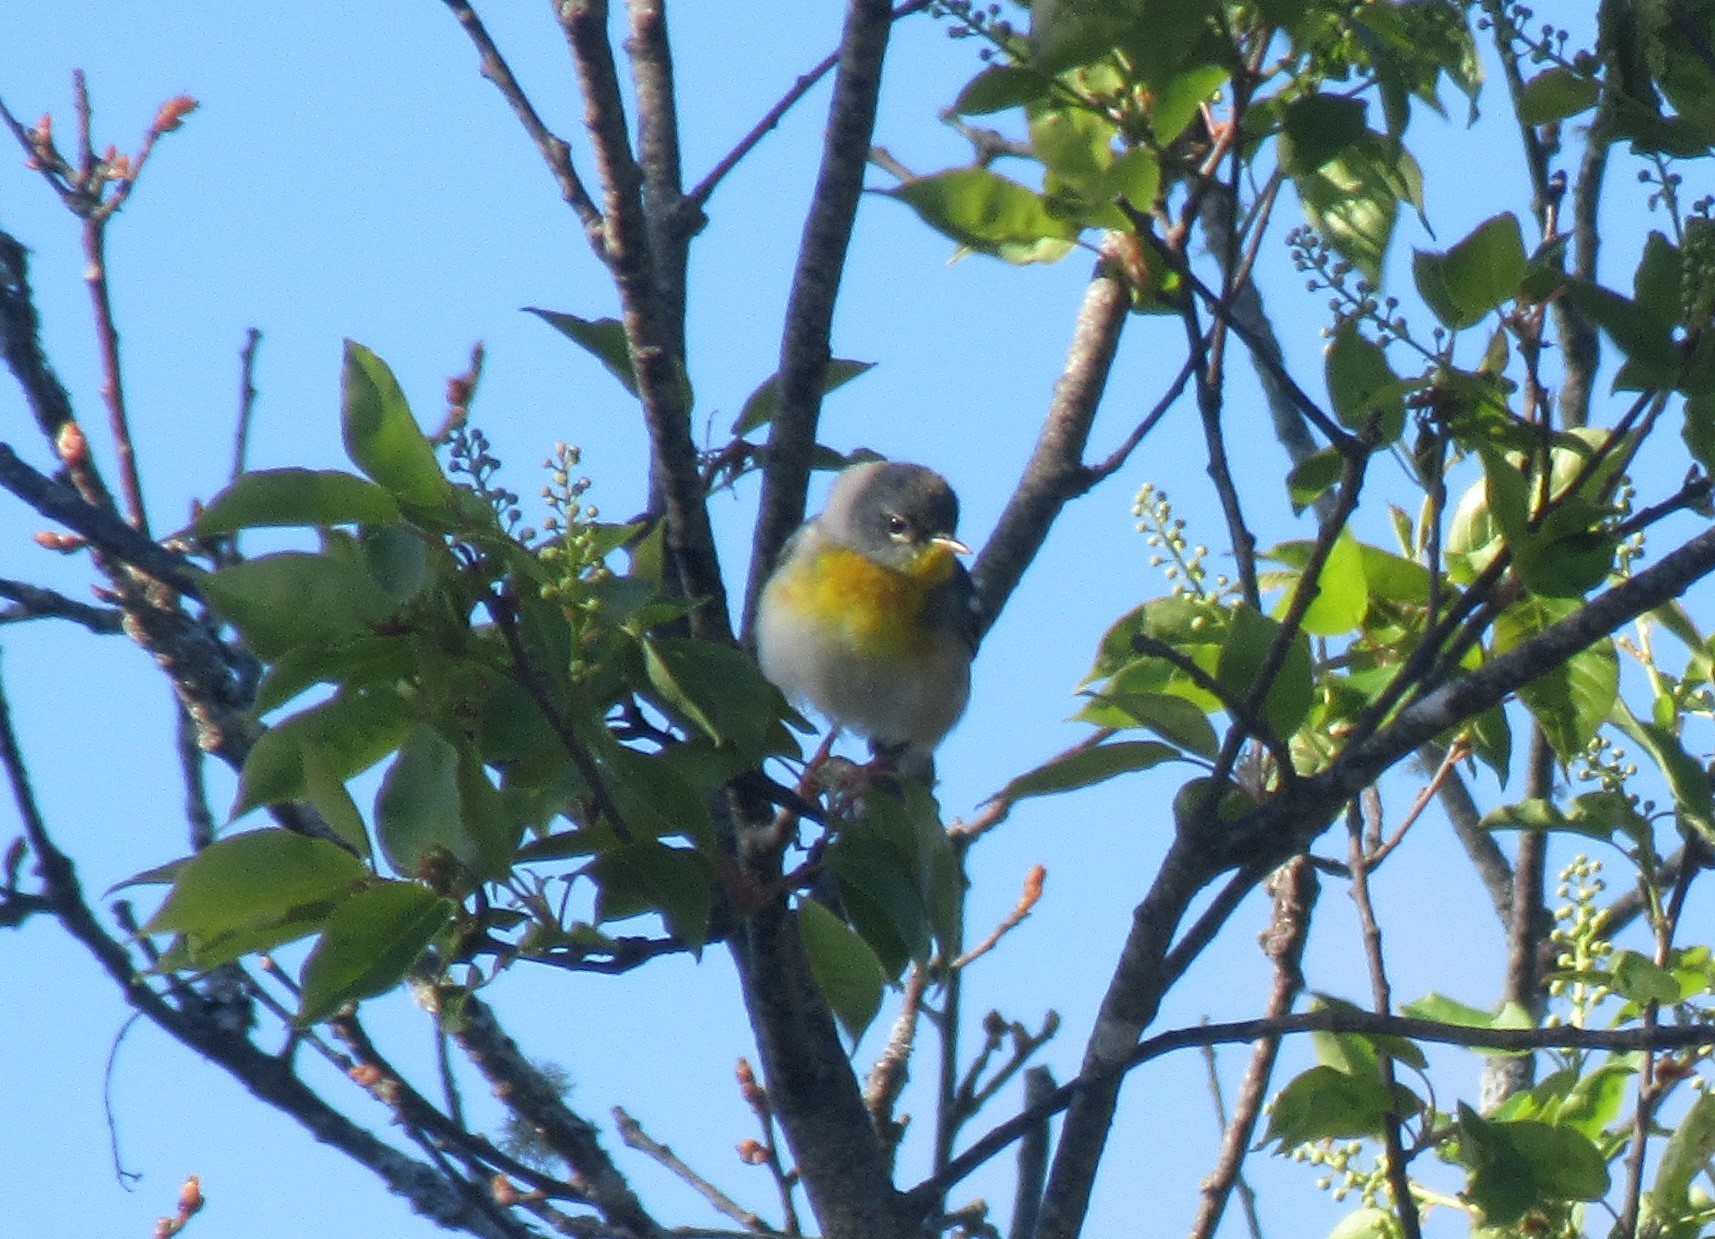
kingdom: Animalia
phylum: Chordata
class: Aves
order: Passeriformes
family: Parulidae
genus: Setophaga
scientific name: Setophaga americana
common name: Northern parula
